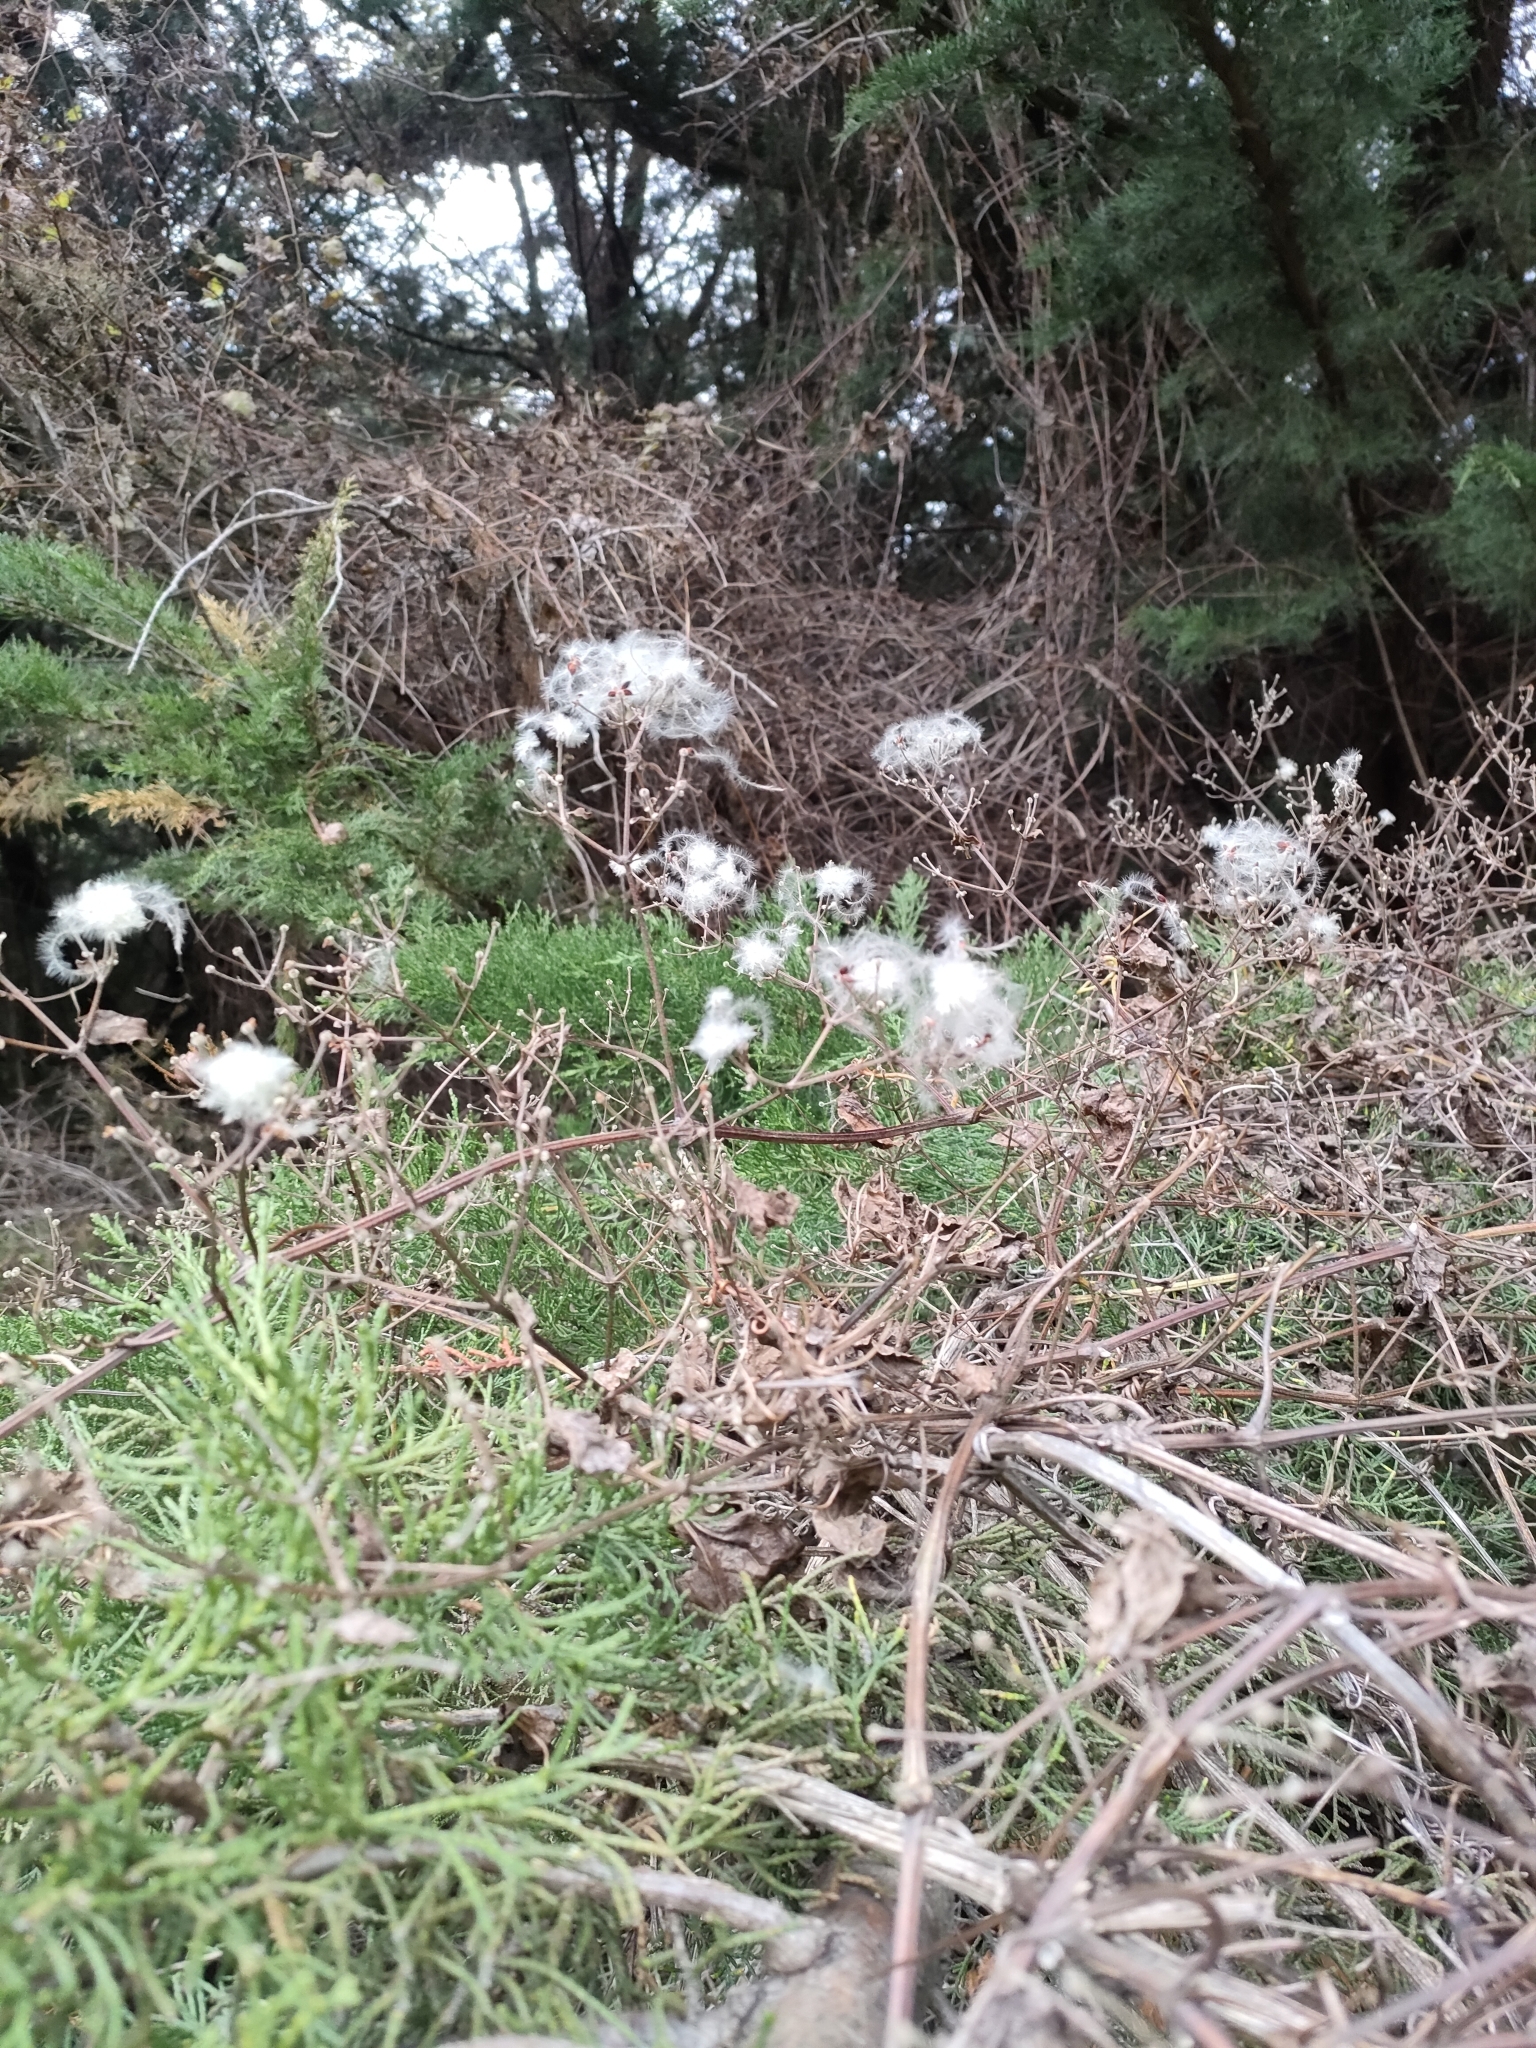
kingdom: Plantae
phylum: Tracheophyta
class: Magnoliopsida
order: Ranunculales
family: Ranunculaceae
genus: Clematis
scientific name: Clematis vitalba
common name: Evergreen clematis
